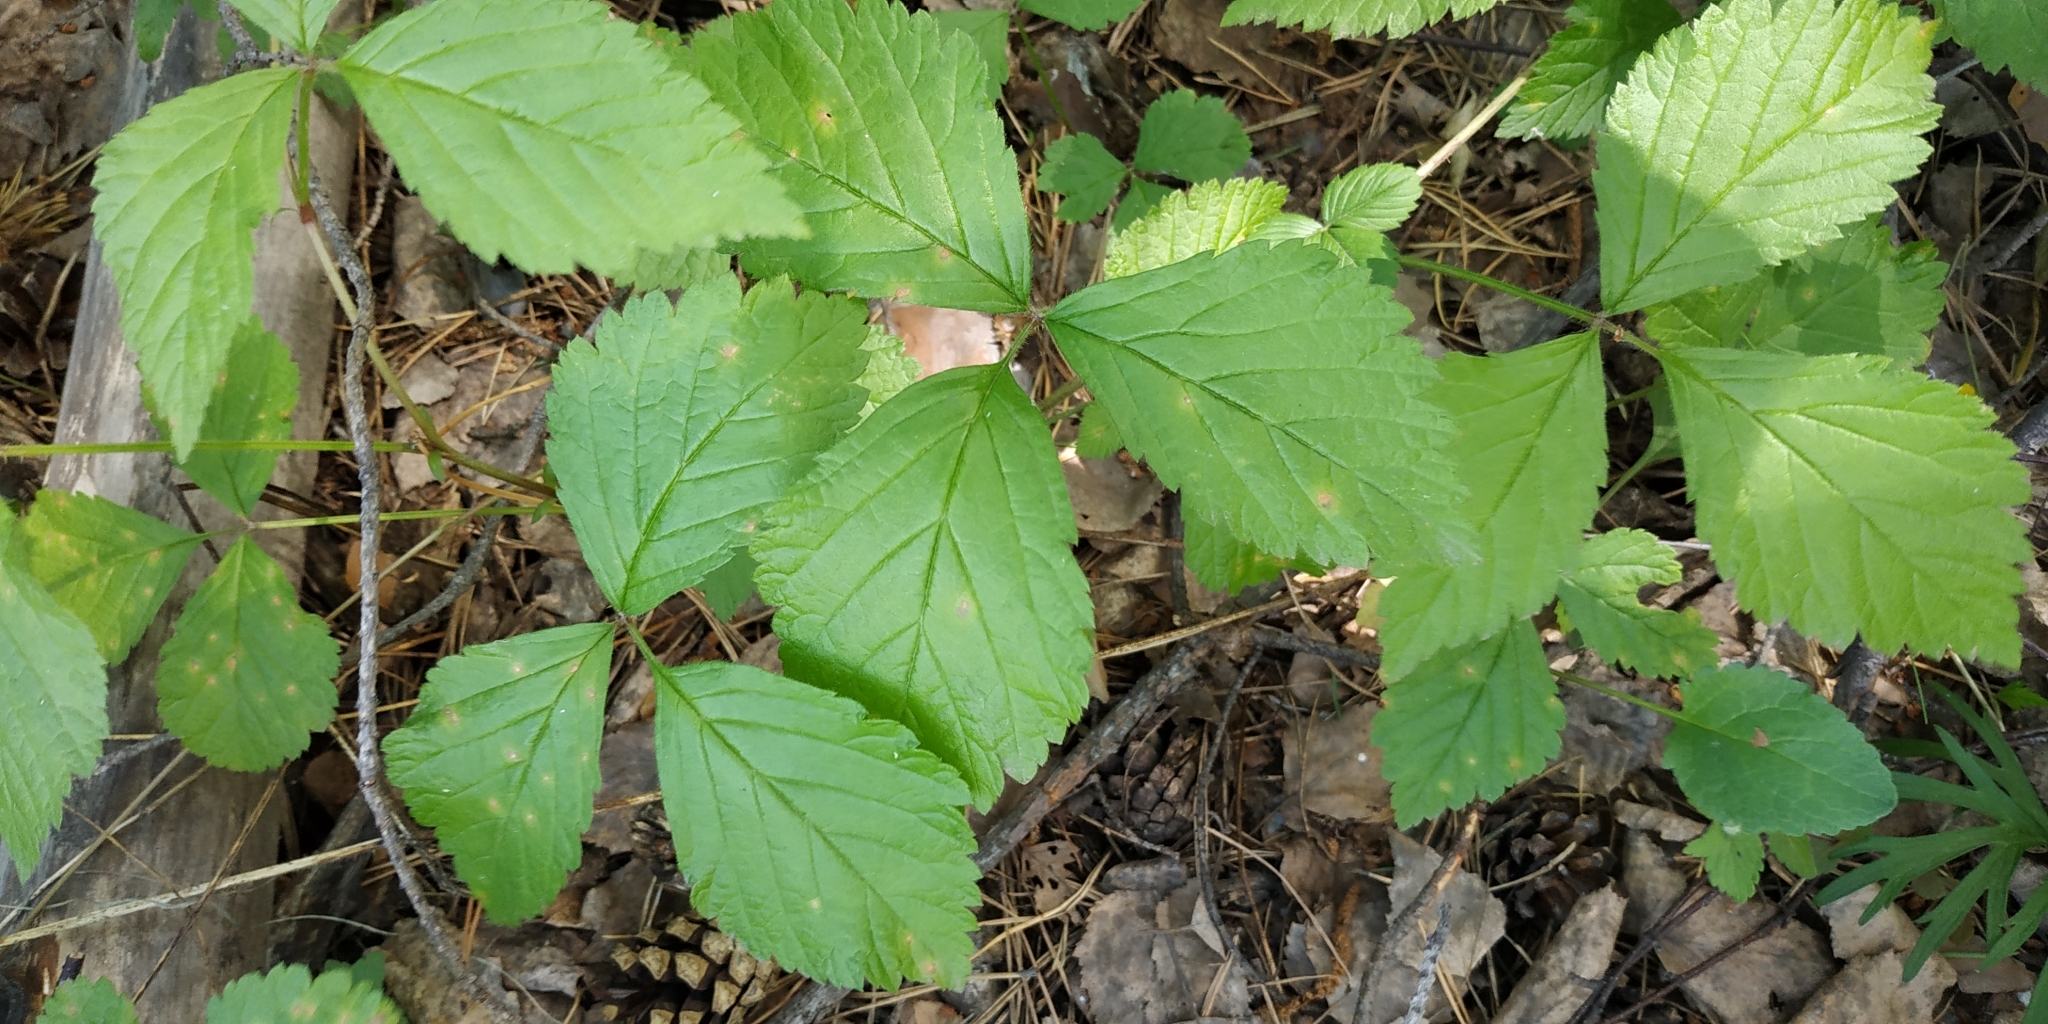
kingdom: Plantae
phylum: Tracheophyta
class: Magnoliopsida
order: Rosales
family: Rosaceae
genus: Rubus
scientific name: Rubus saxatilis
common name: Stone bramble
